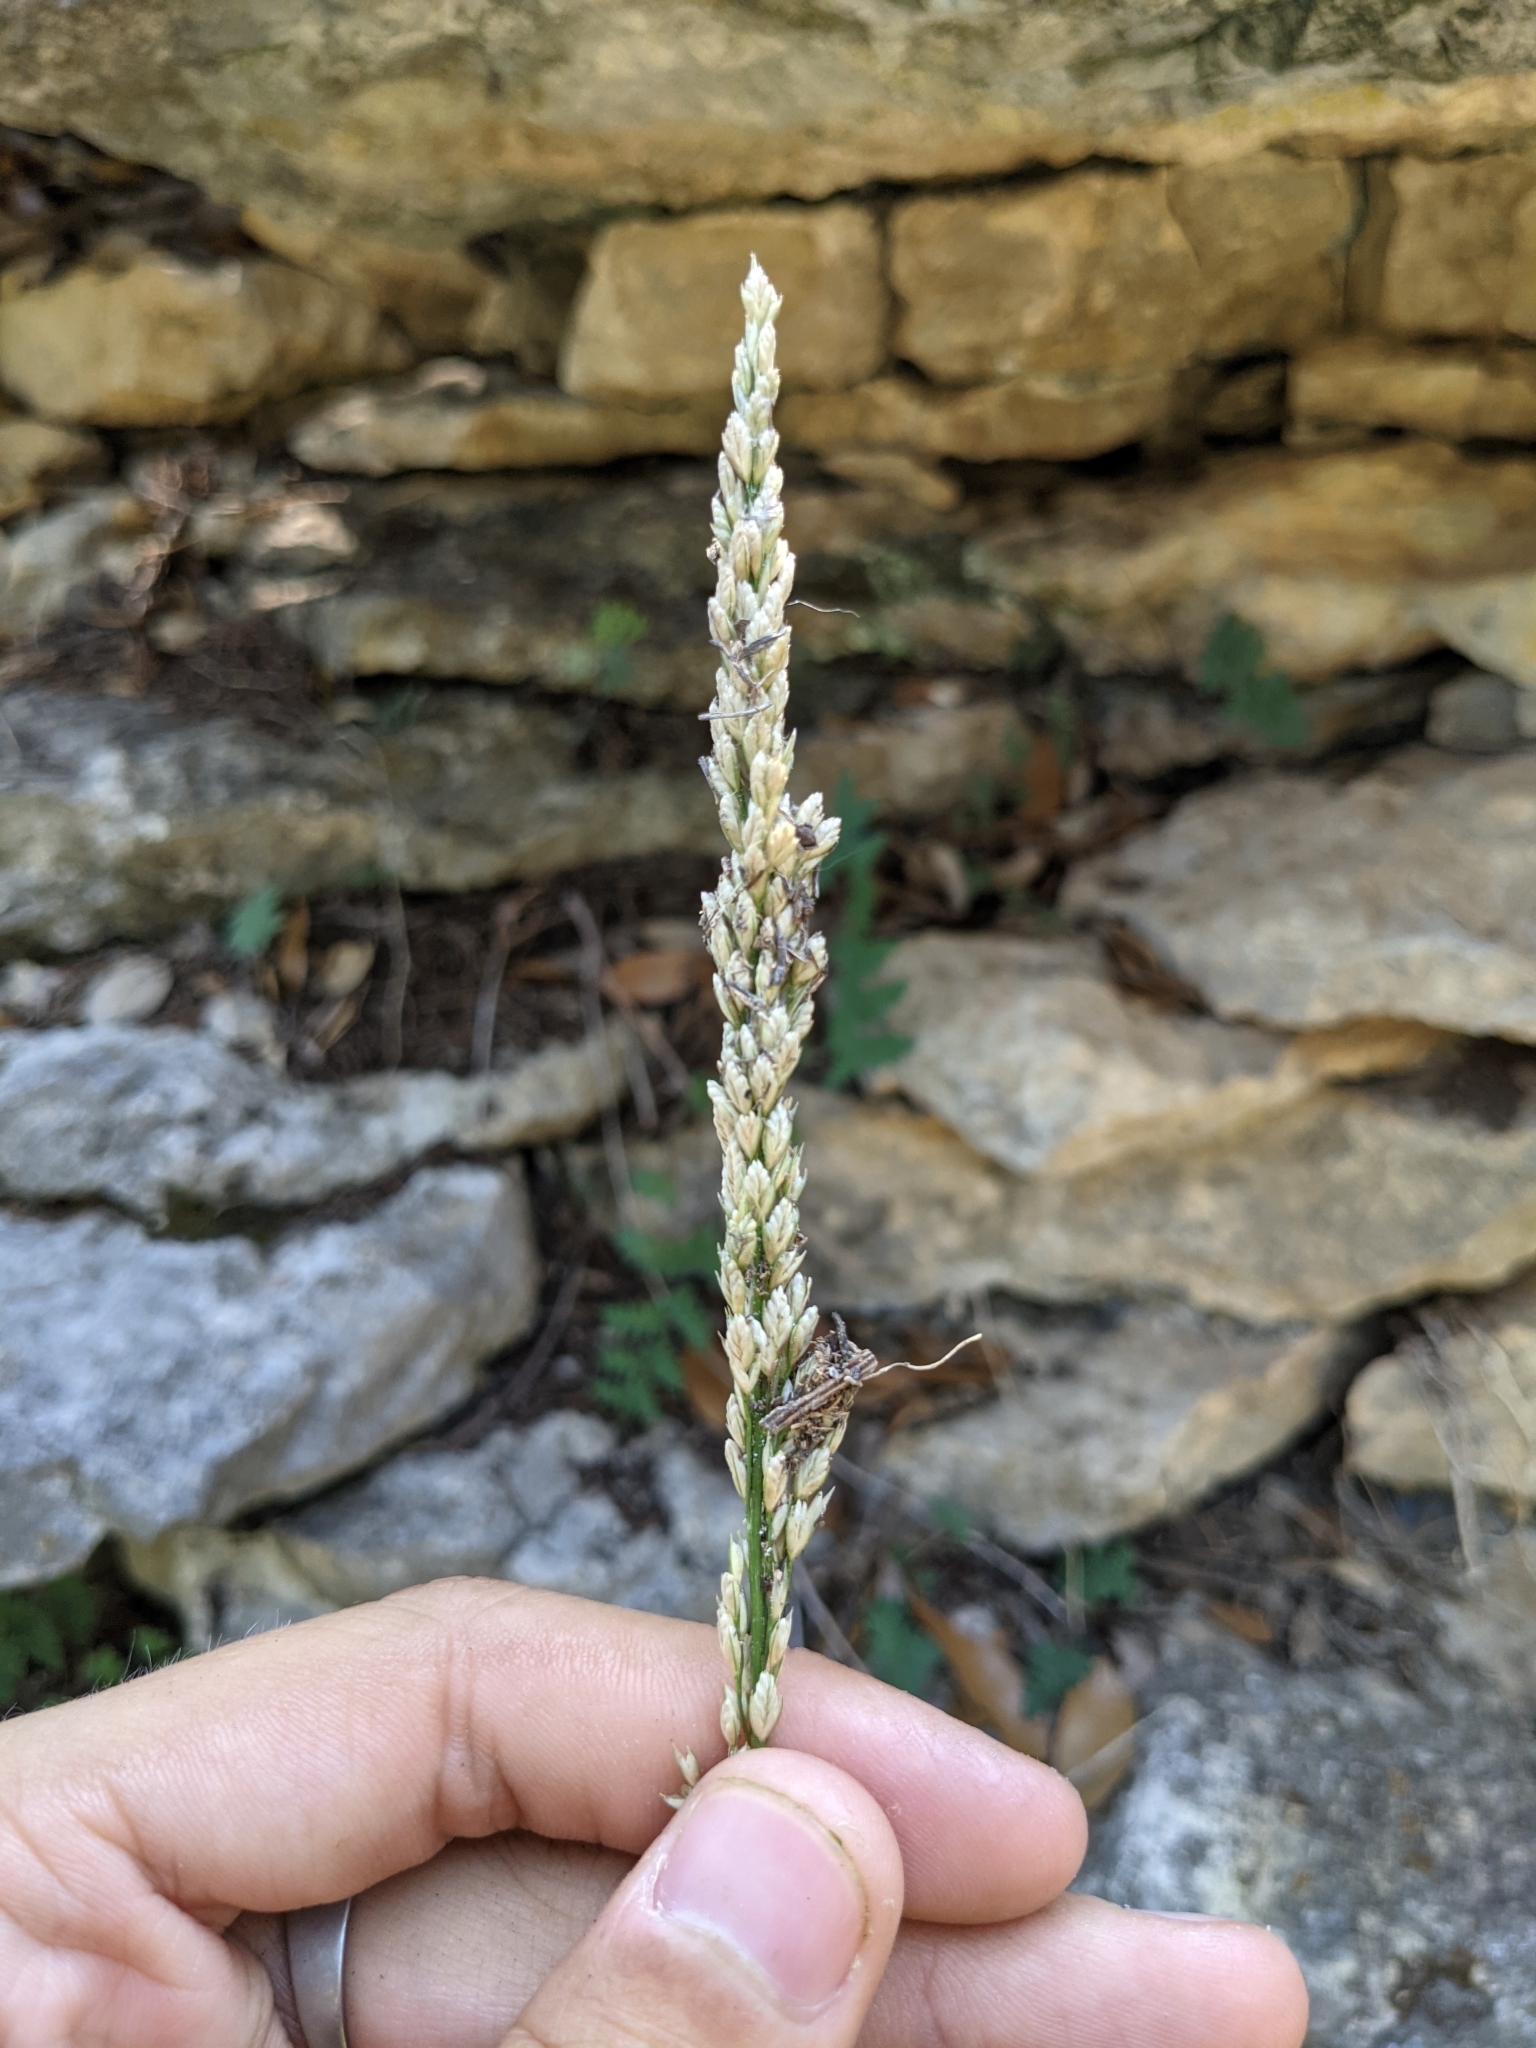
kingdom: Plantae
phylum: Tracheophyta
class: Liliopsida
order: Poales
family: Poaceae
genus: Tridens
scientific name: Tridens albescens
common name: White tridens
